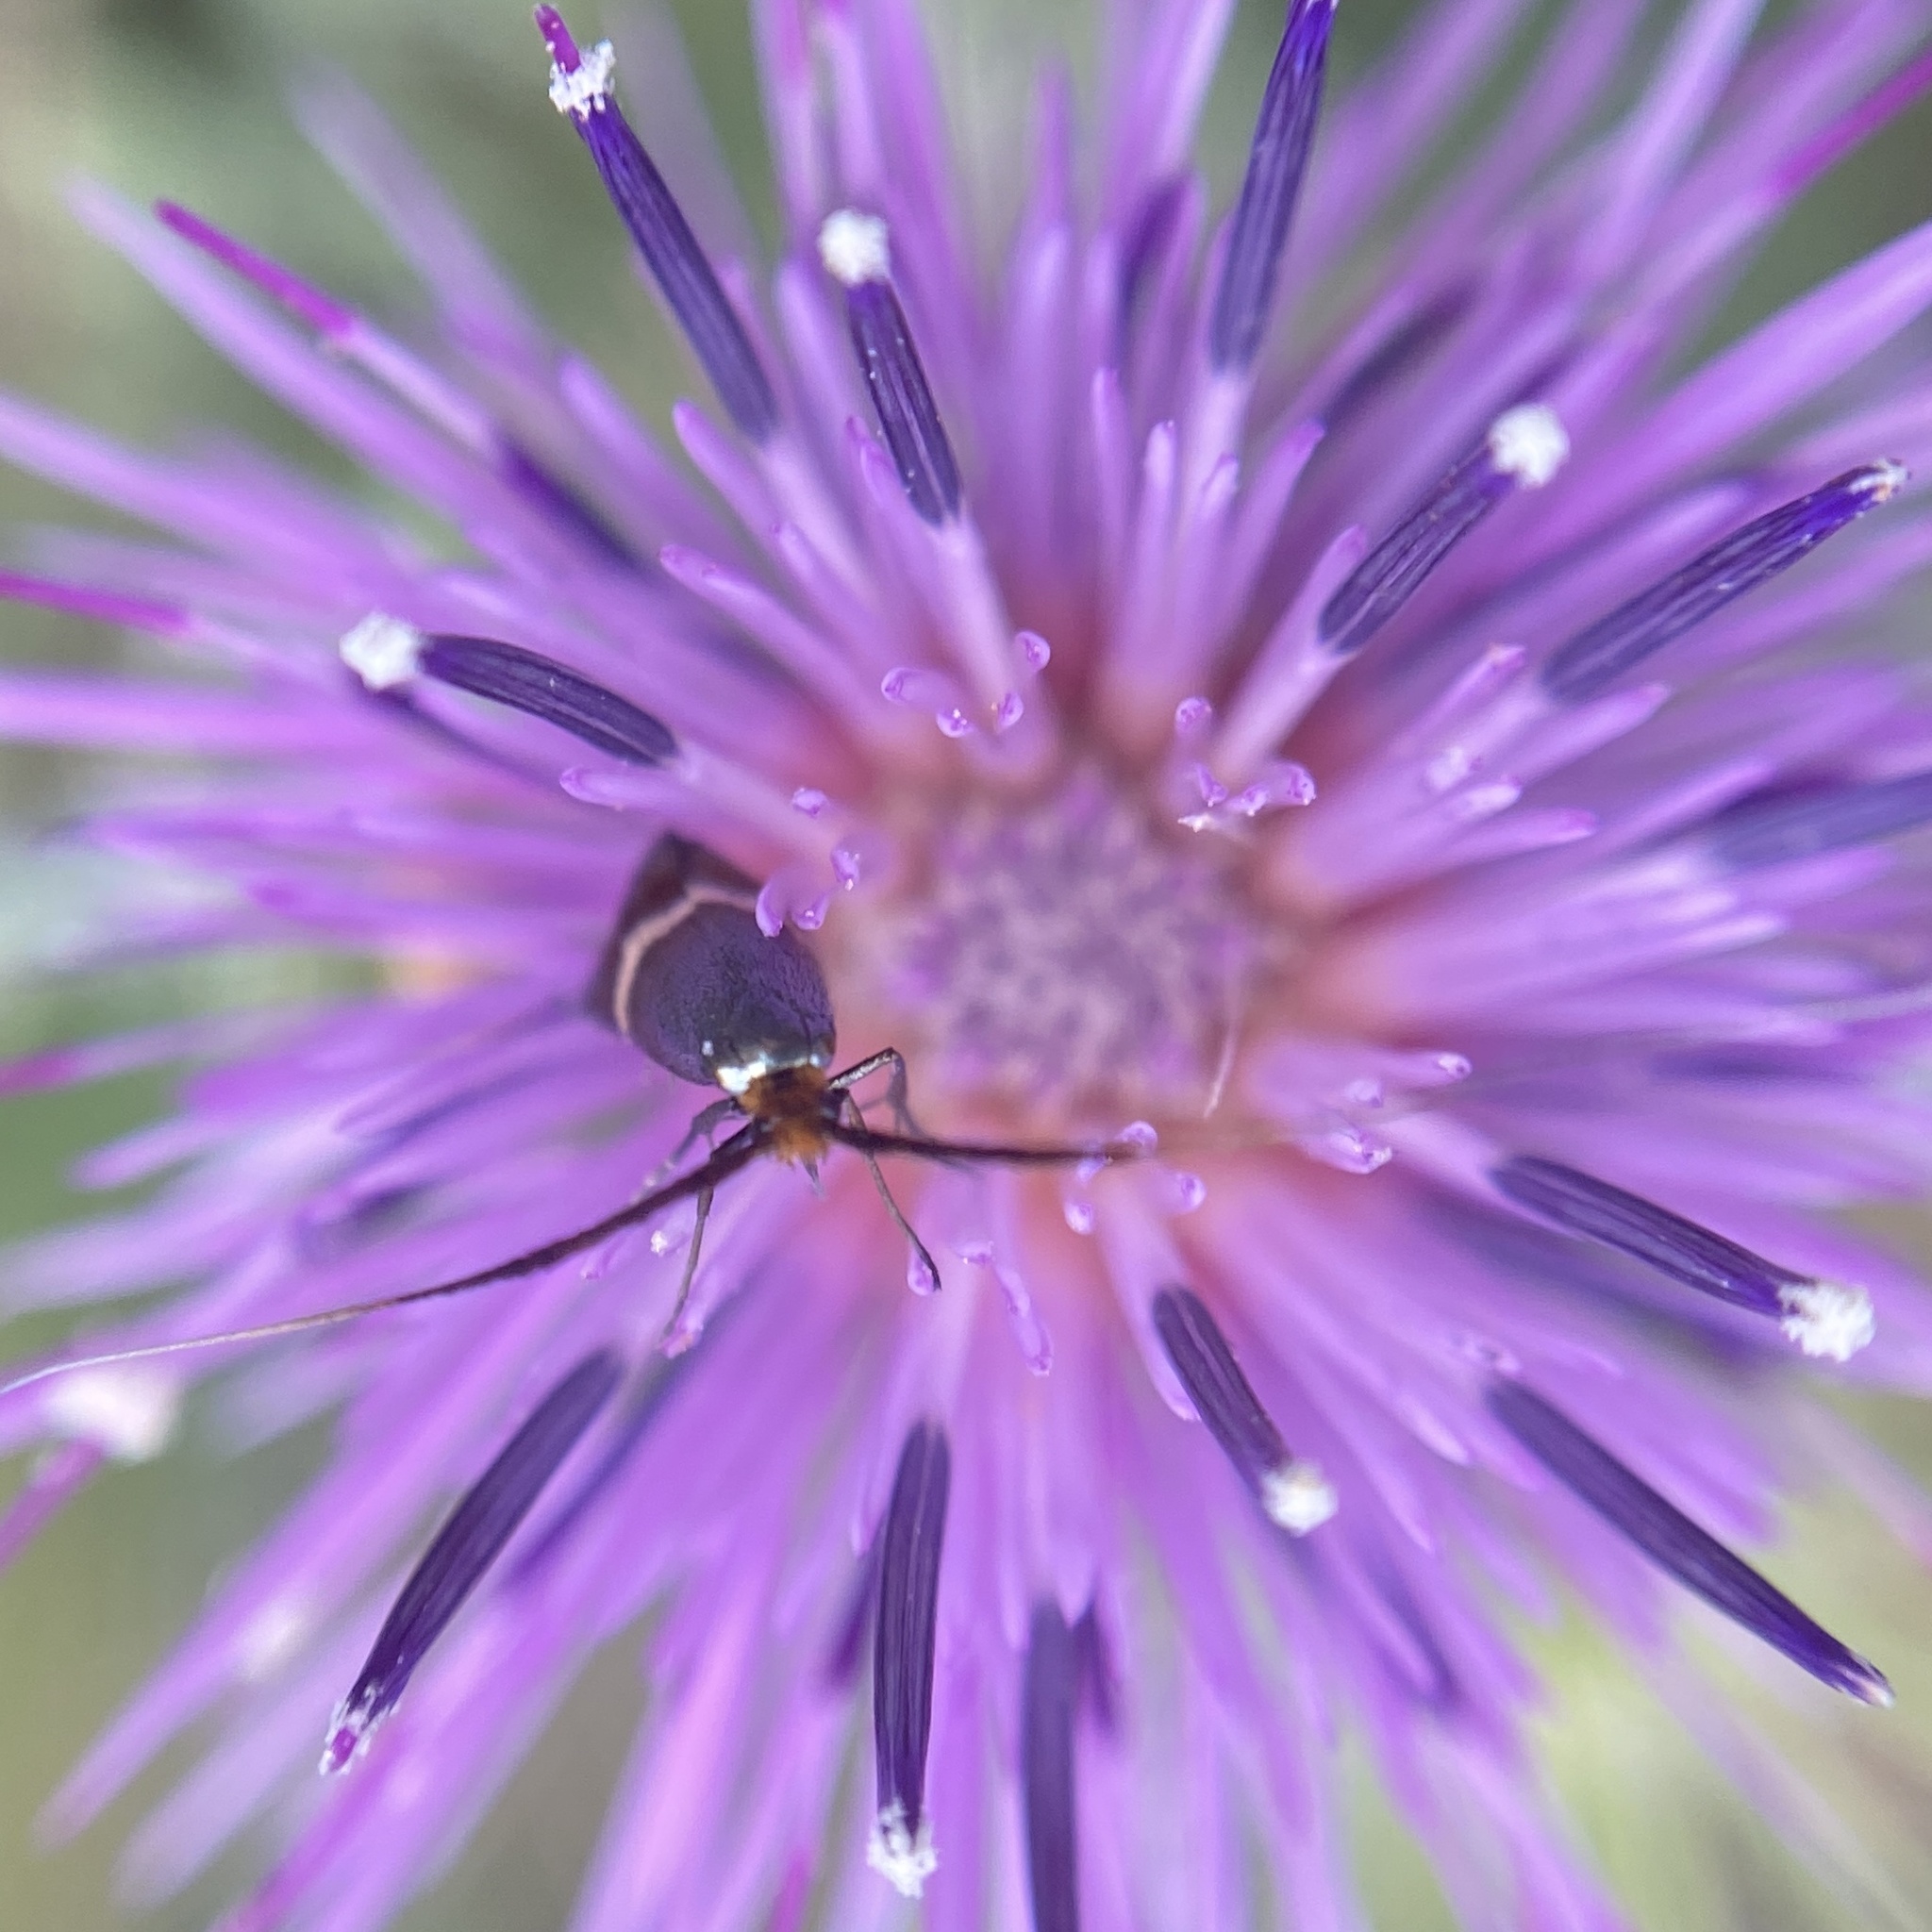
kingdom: Animalia
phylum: Arthropoda
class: Insecta
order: Lepidoptera
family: Adelidae
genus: Adela
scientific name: Adela australis
